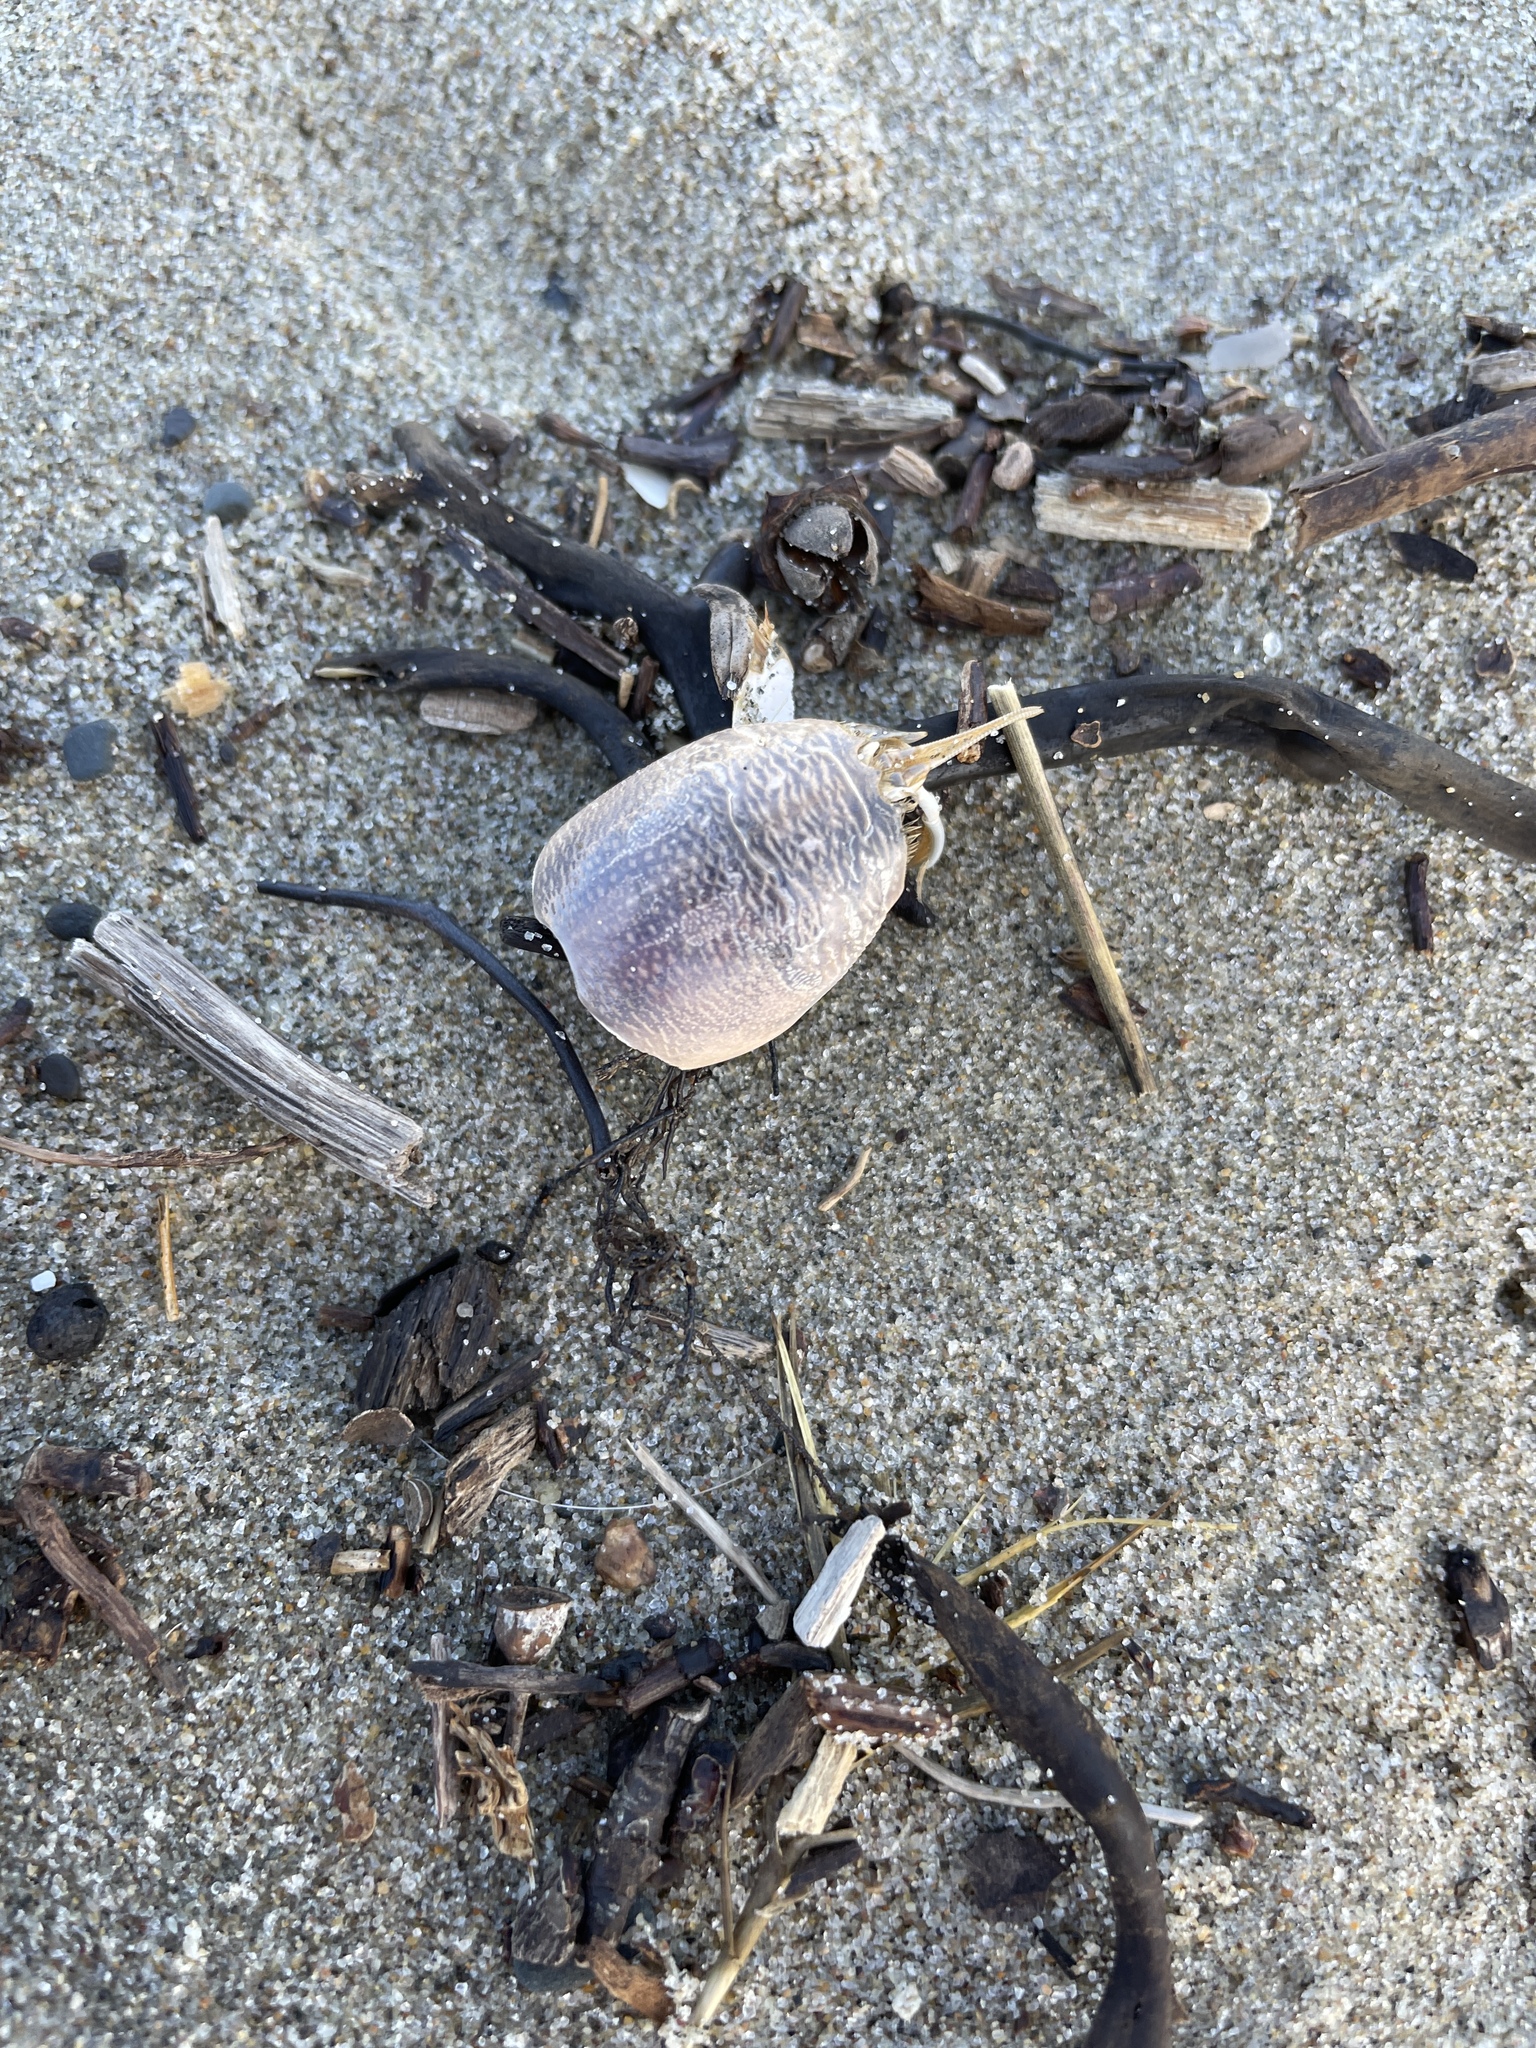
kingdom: Animalia
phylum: Arthropoda
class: Malacostraca
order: Decapoda
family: Hippidae
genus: Emerita
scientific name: Emerita analoga
